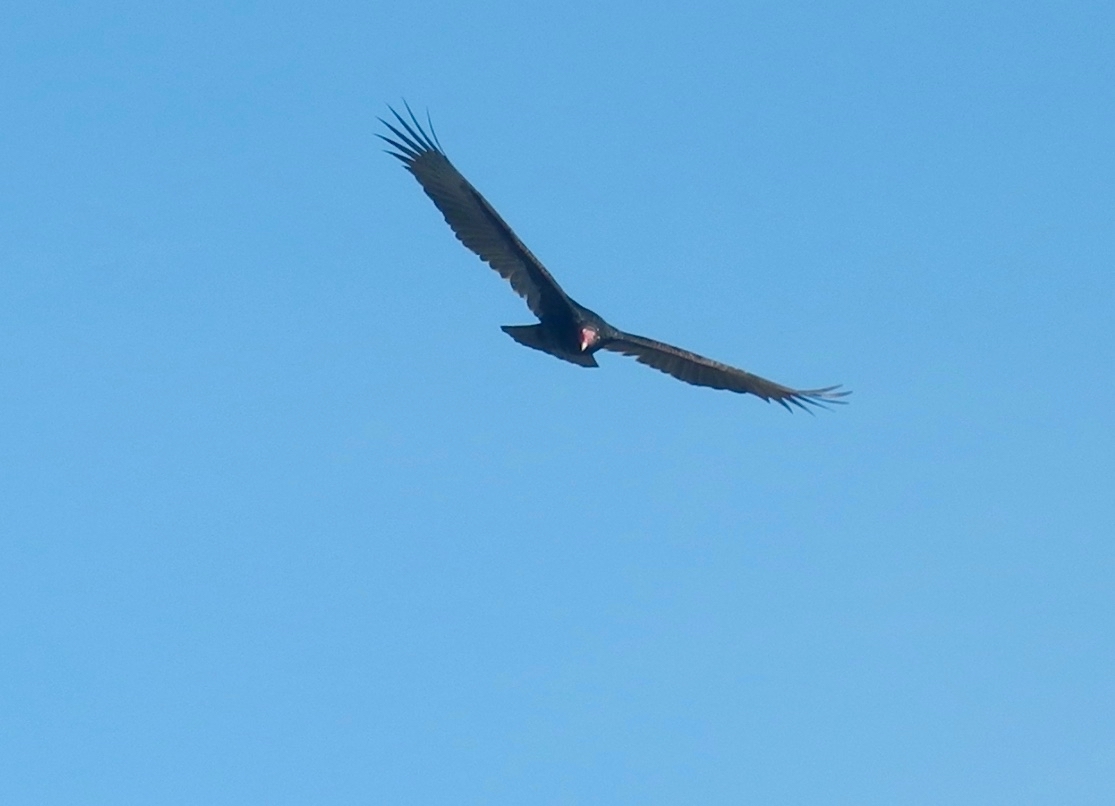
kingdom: Animalia
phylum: Chordata
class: Aves
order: Accipitriformes
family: Cathartidae
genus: Cathartes
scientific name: Cathartes aura
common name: Turkey vulture
